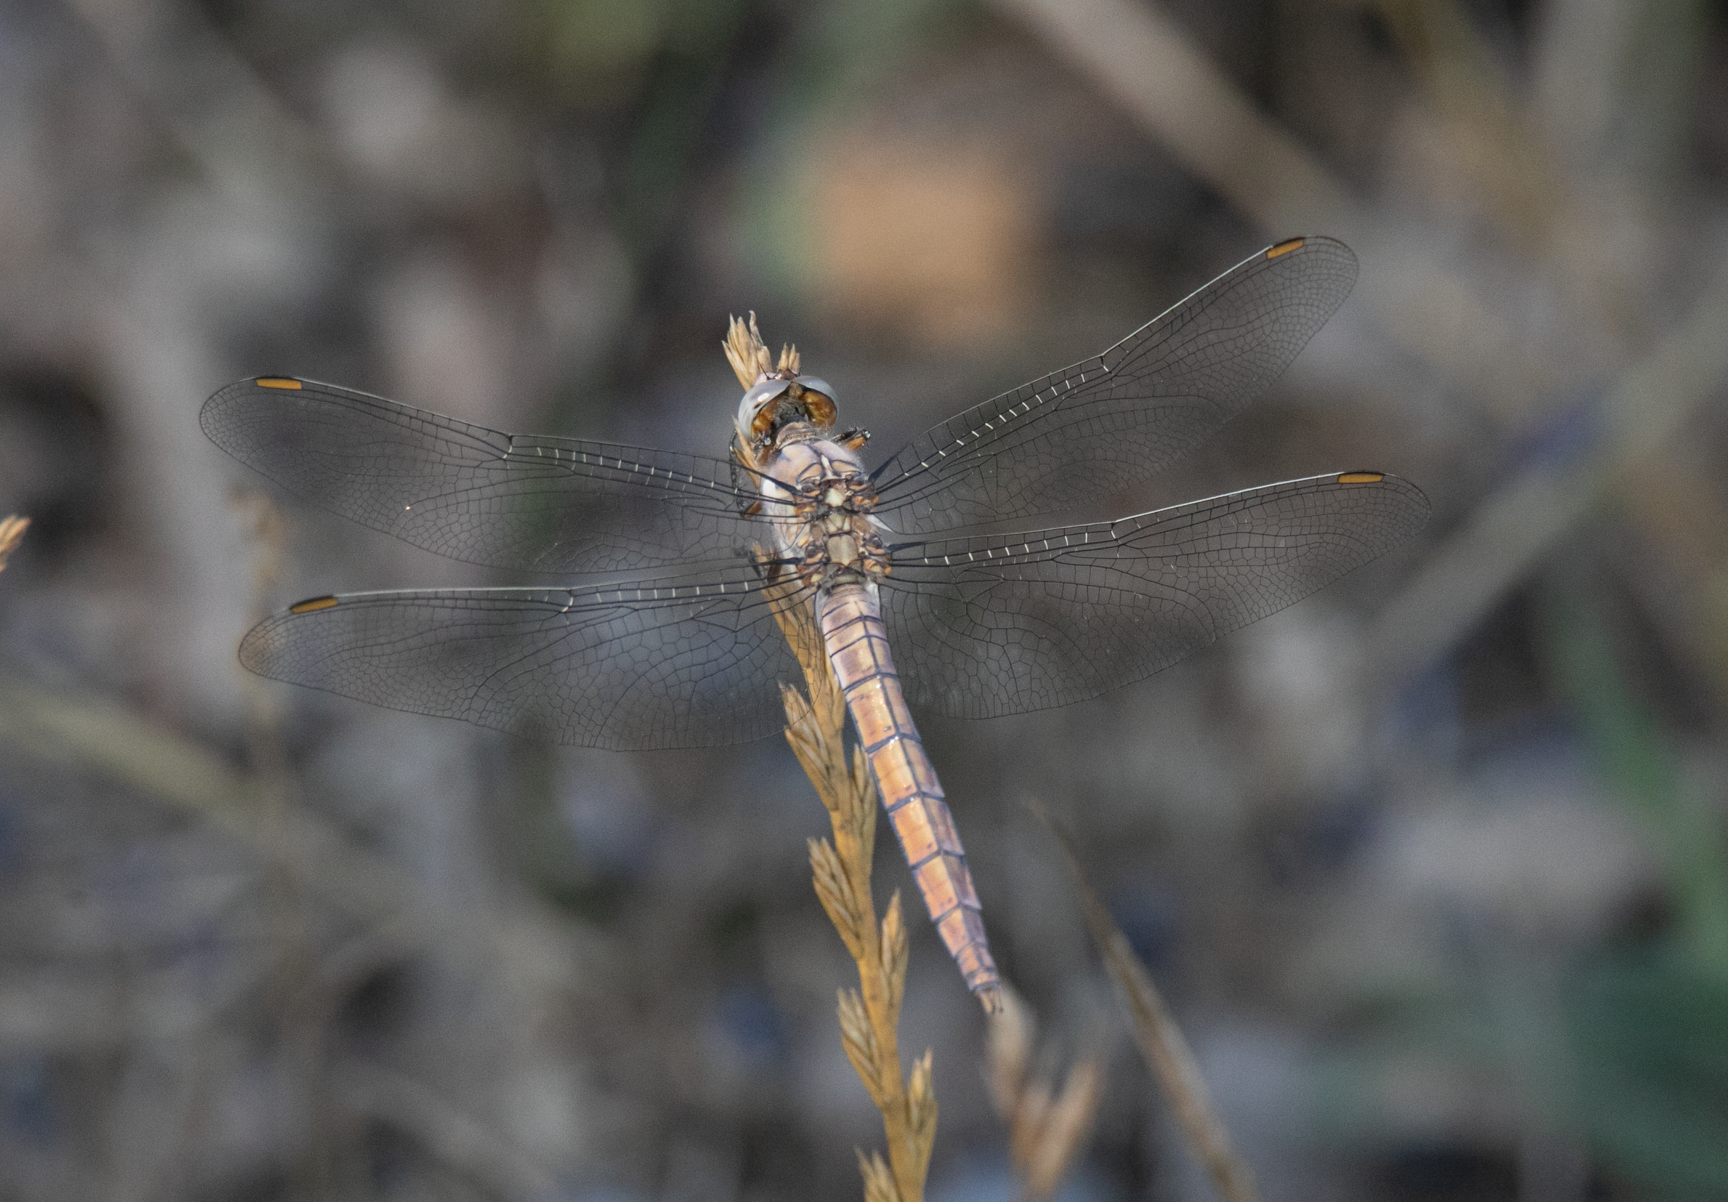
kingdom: Animalia
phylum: Arthropoda
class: Insecta
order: Odonata
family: Libellulidae
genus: Orthetrum
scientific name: Orthetrum brunneum
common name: Southern skimmer
